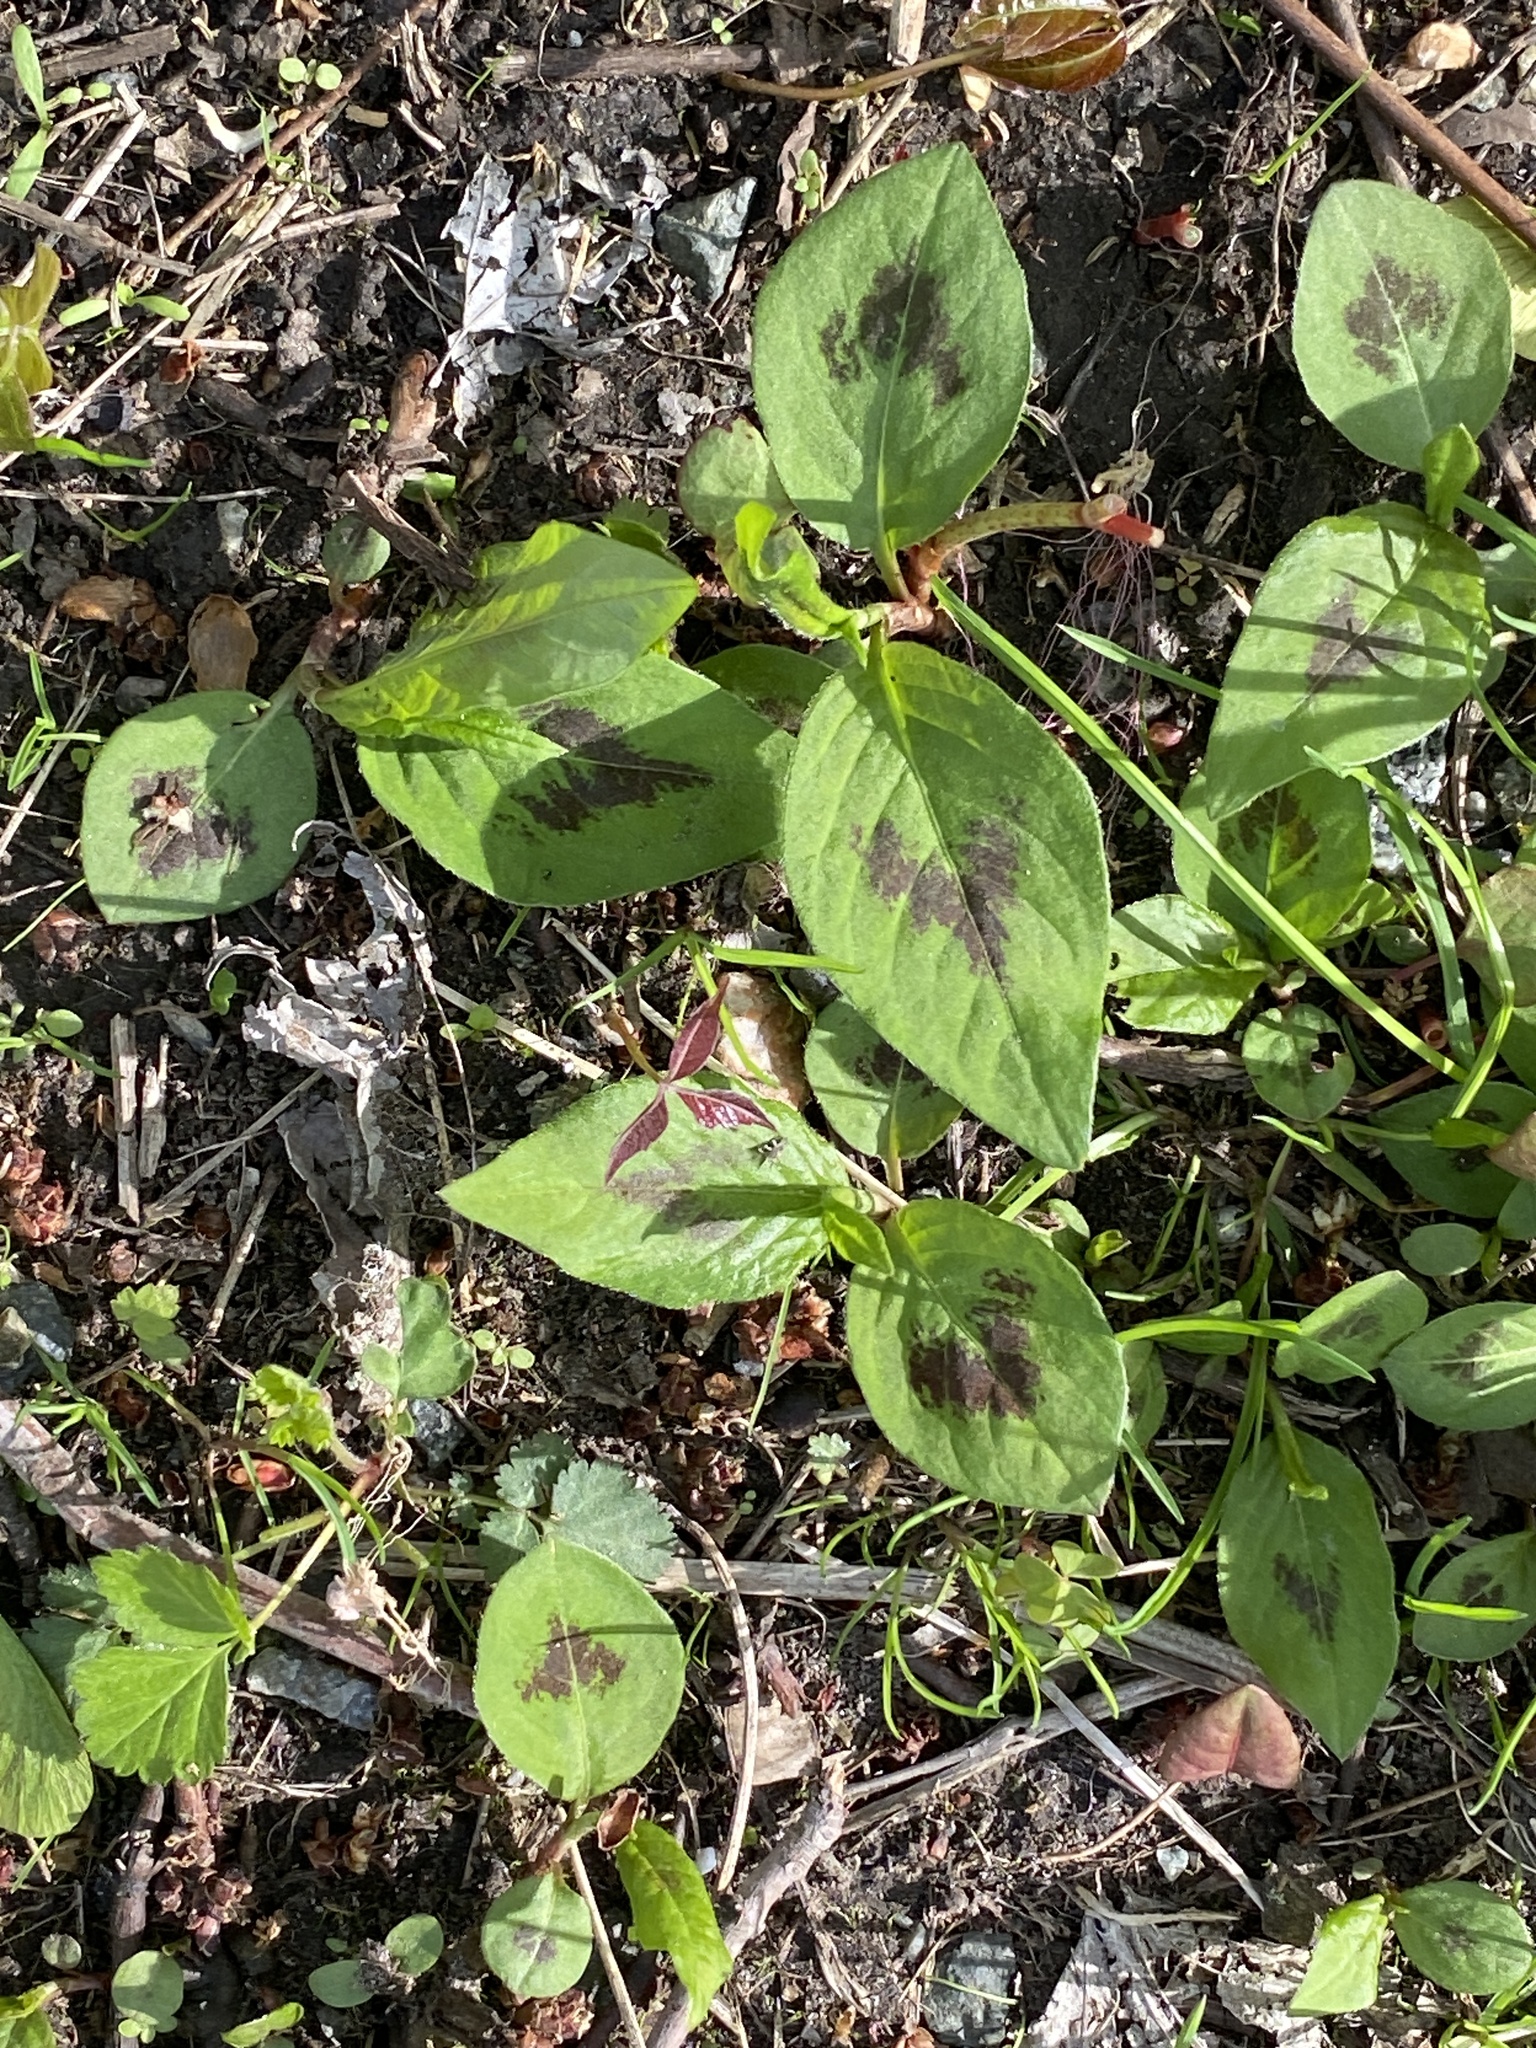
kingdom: Plantae
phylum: Tracheophyta
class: Magnoliopsida
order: Caryophyllales
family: Polygonaceae
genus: Persicaria
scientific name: Persicaria virginiana
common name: Jumpseed
